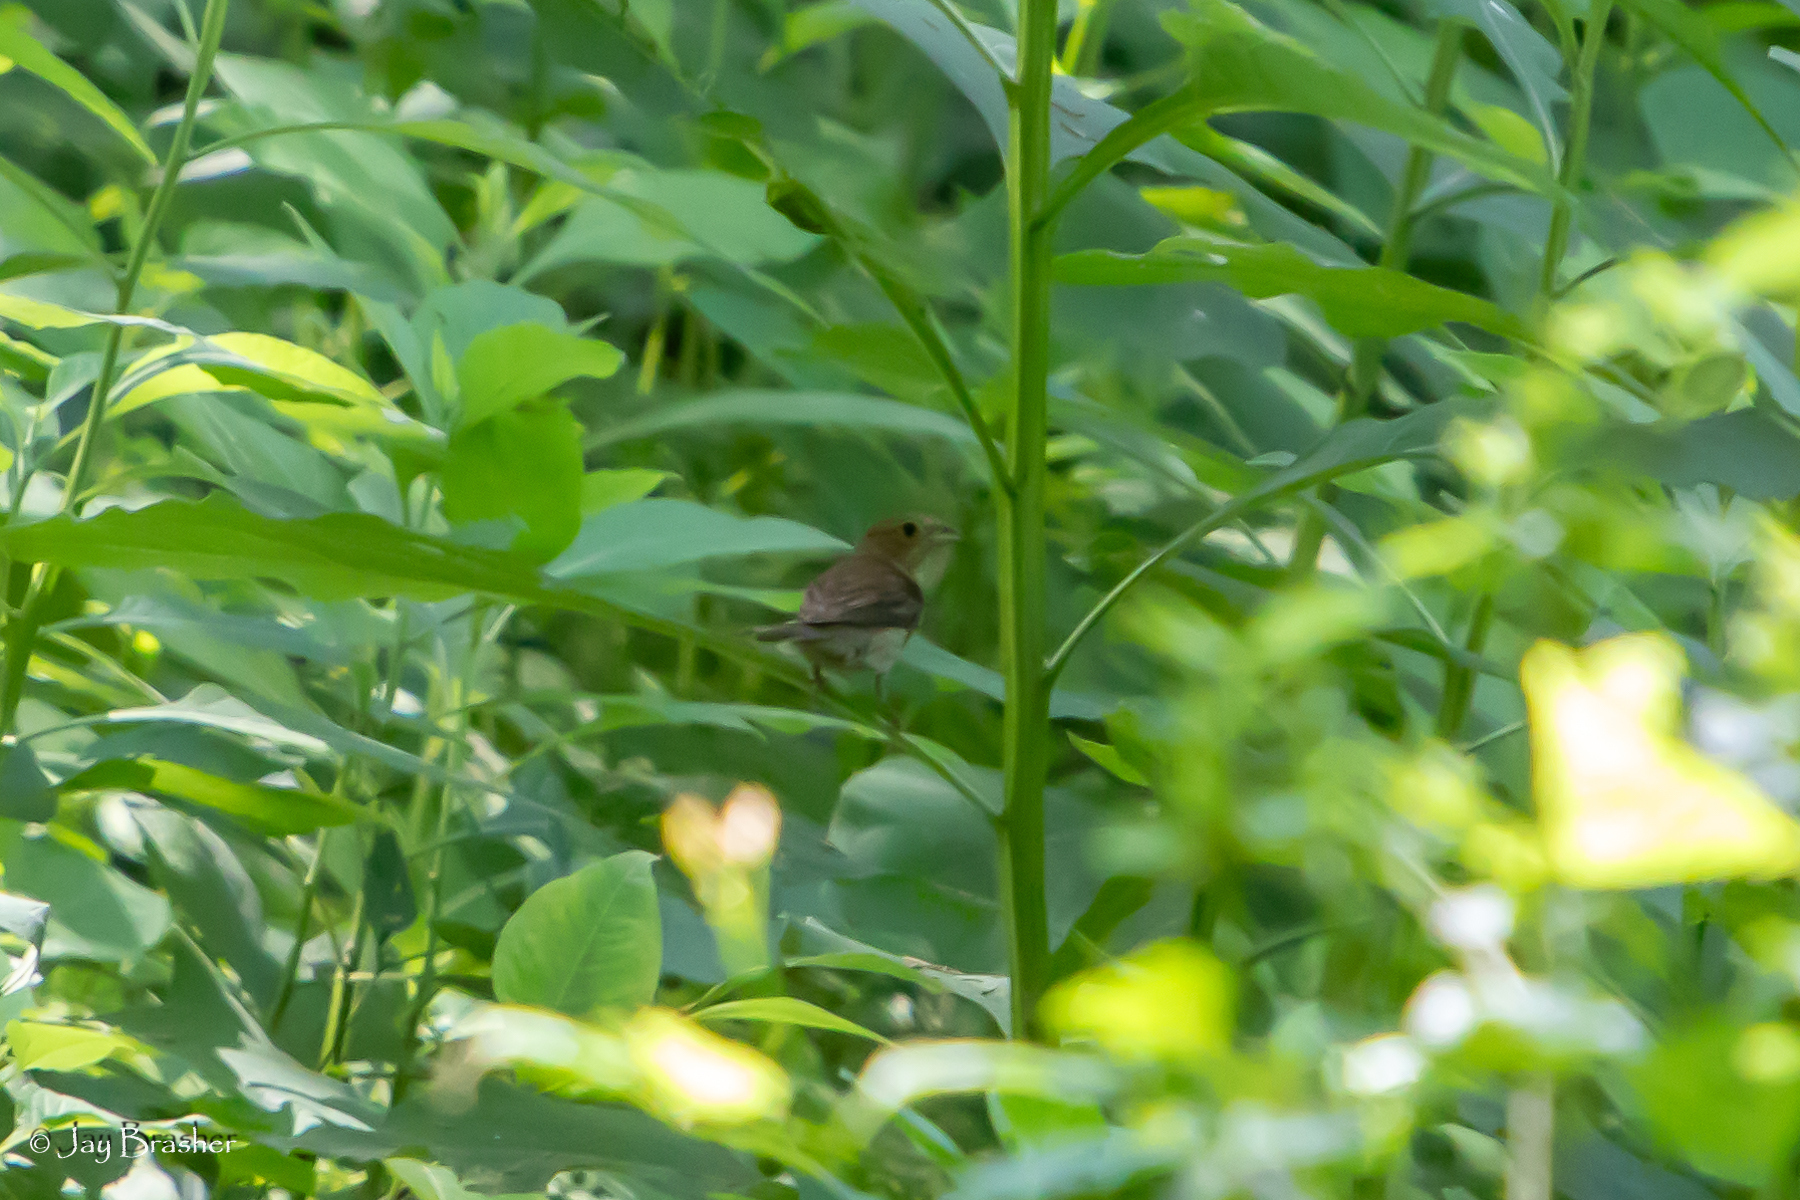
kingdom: Animalia
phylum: Chordata
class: Aves
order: Passeriformes
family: Cardinalidae
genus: Passerina
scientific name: Passerina cyanea
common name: Indigo bunting
